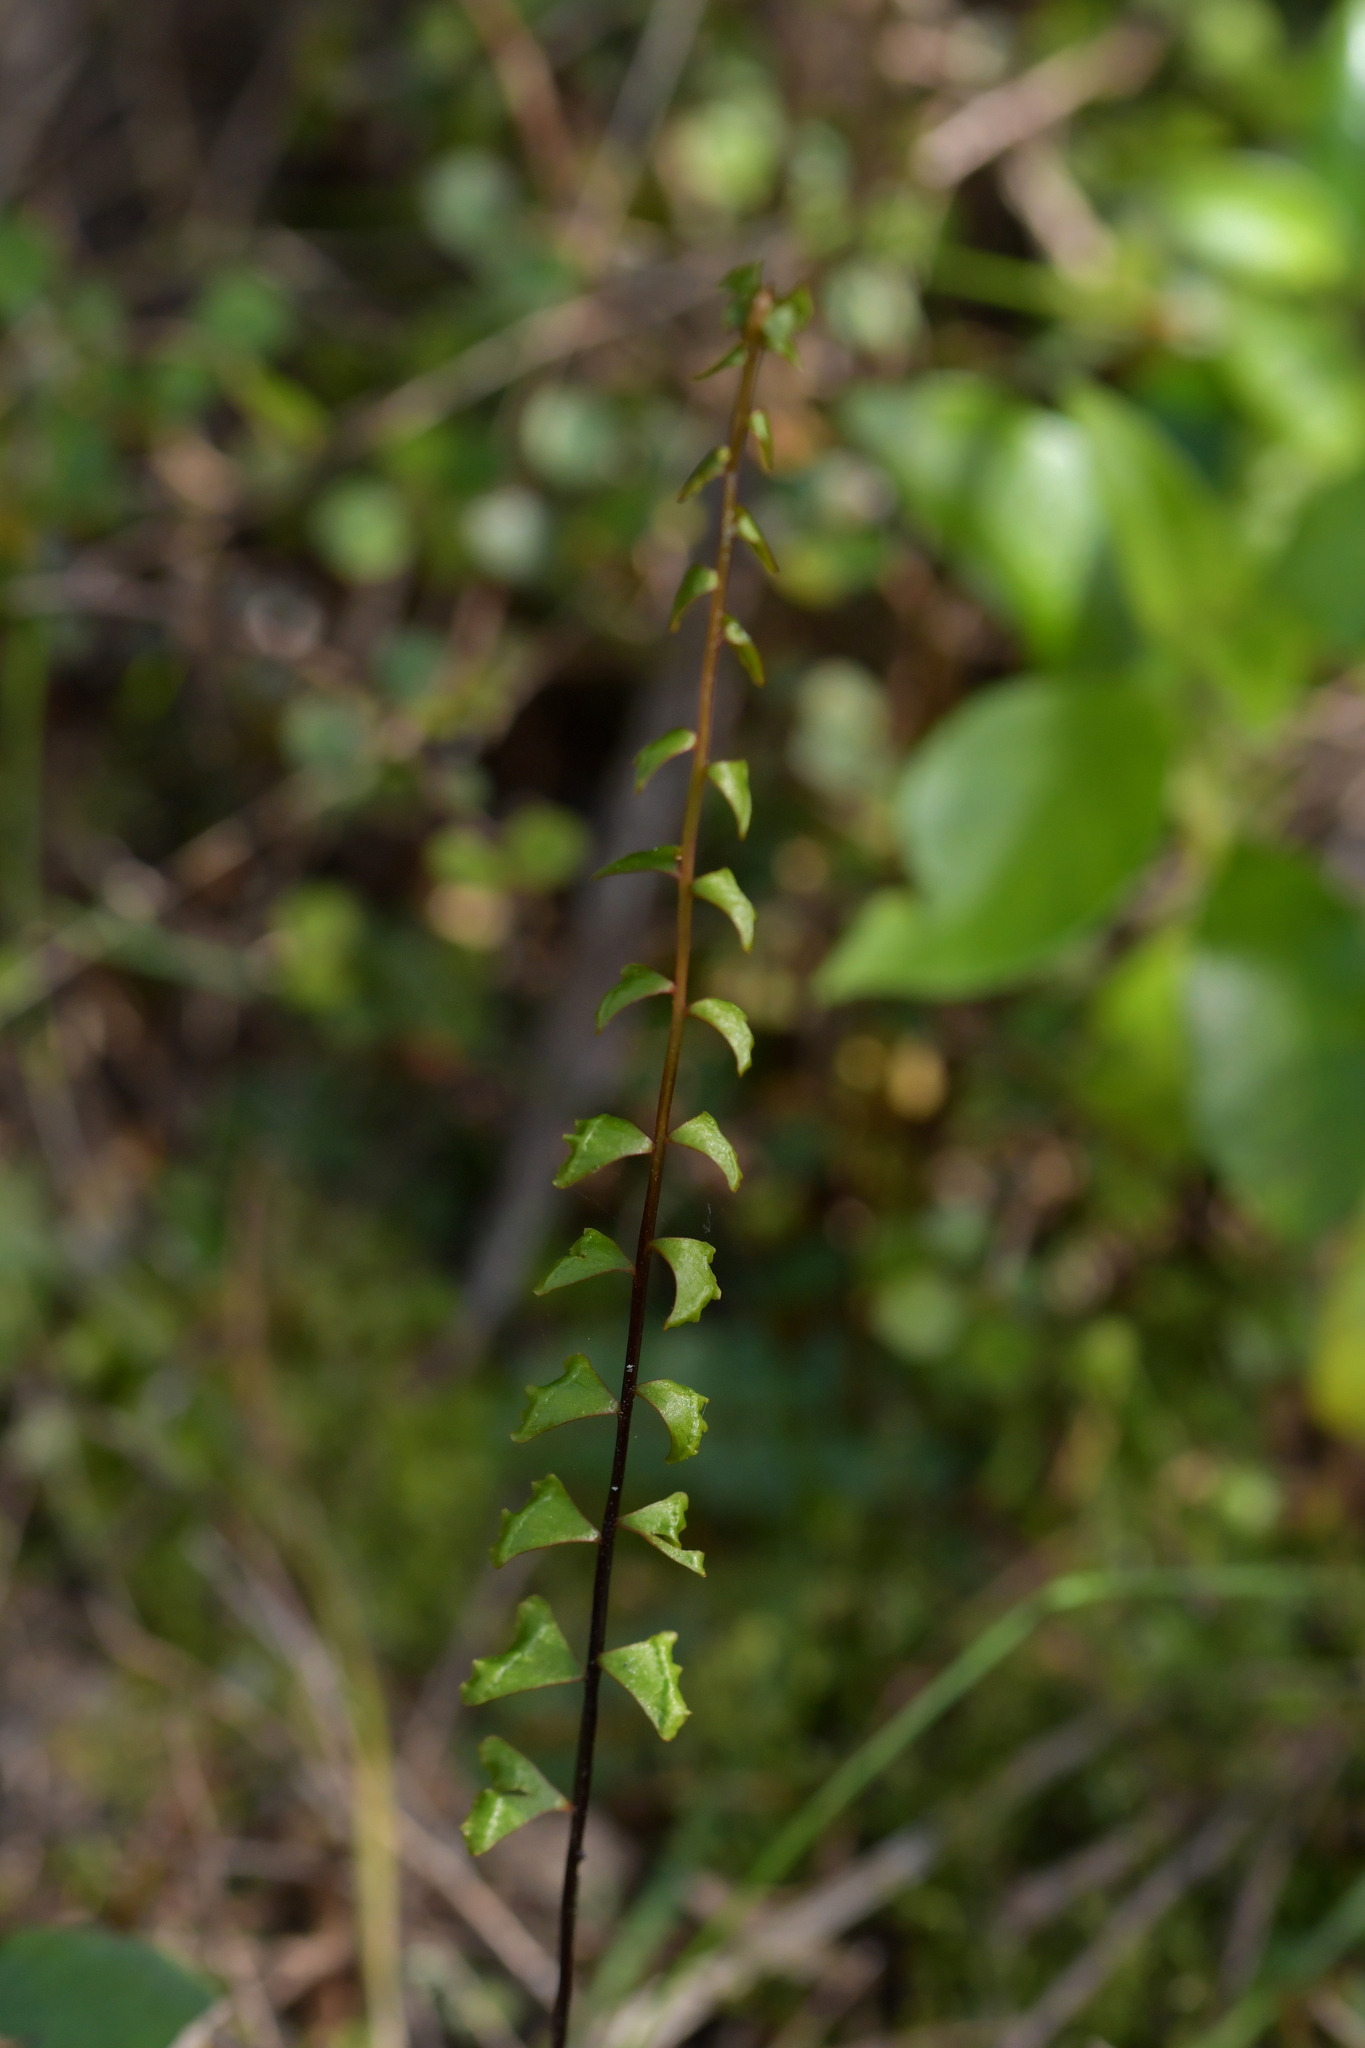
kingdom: Plantae
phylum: Tracheophyta
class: Polypodiopsida
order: Polypodiales
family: Lindsaeaceae
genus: Lindsaea
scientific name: Lindsaea linearis
